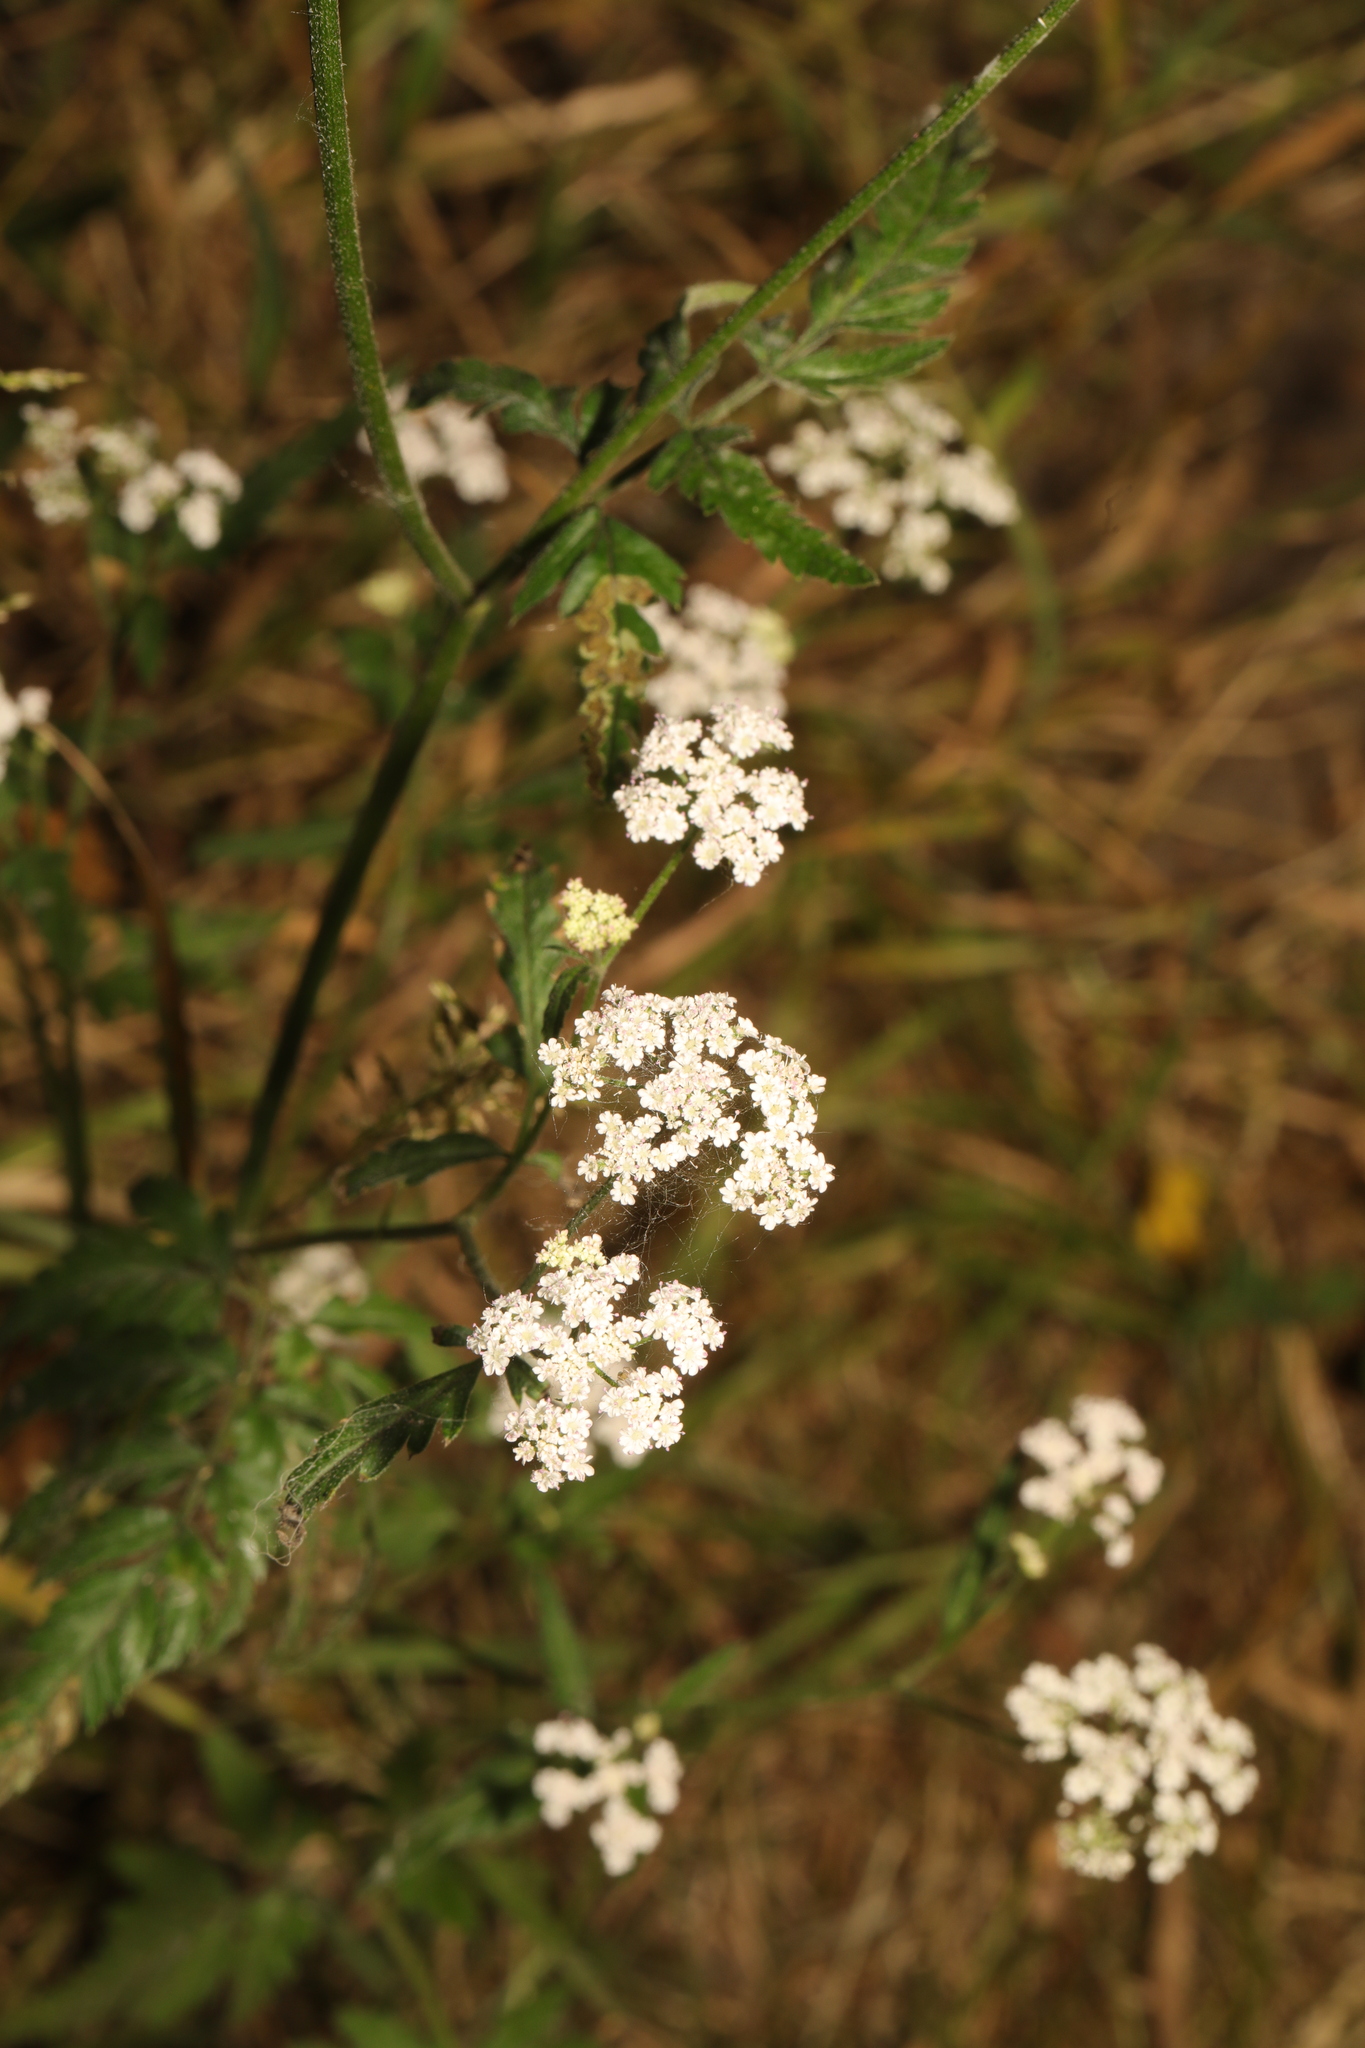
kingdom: Plantae
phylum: Tracheophyta
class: Magnoliopsida
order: Apiales
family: Apiaceae
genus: Torilis
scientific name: Torilis japonica
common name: Upright hedge-parsley
